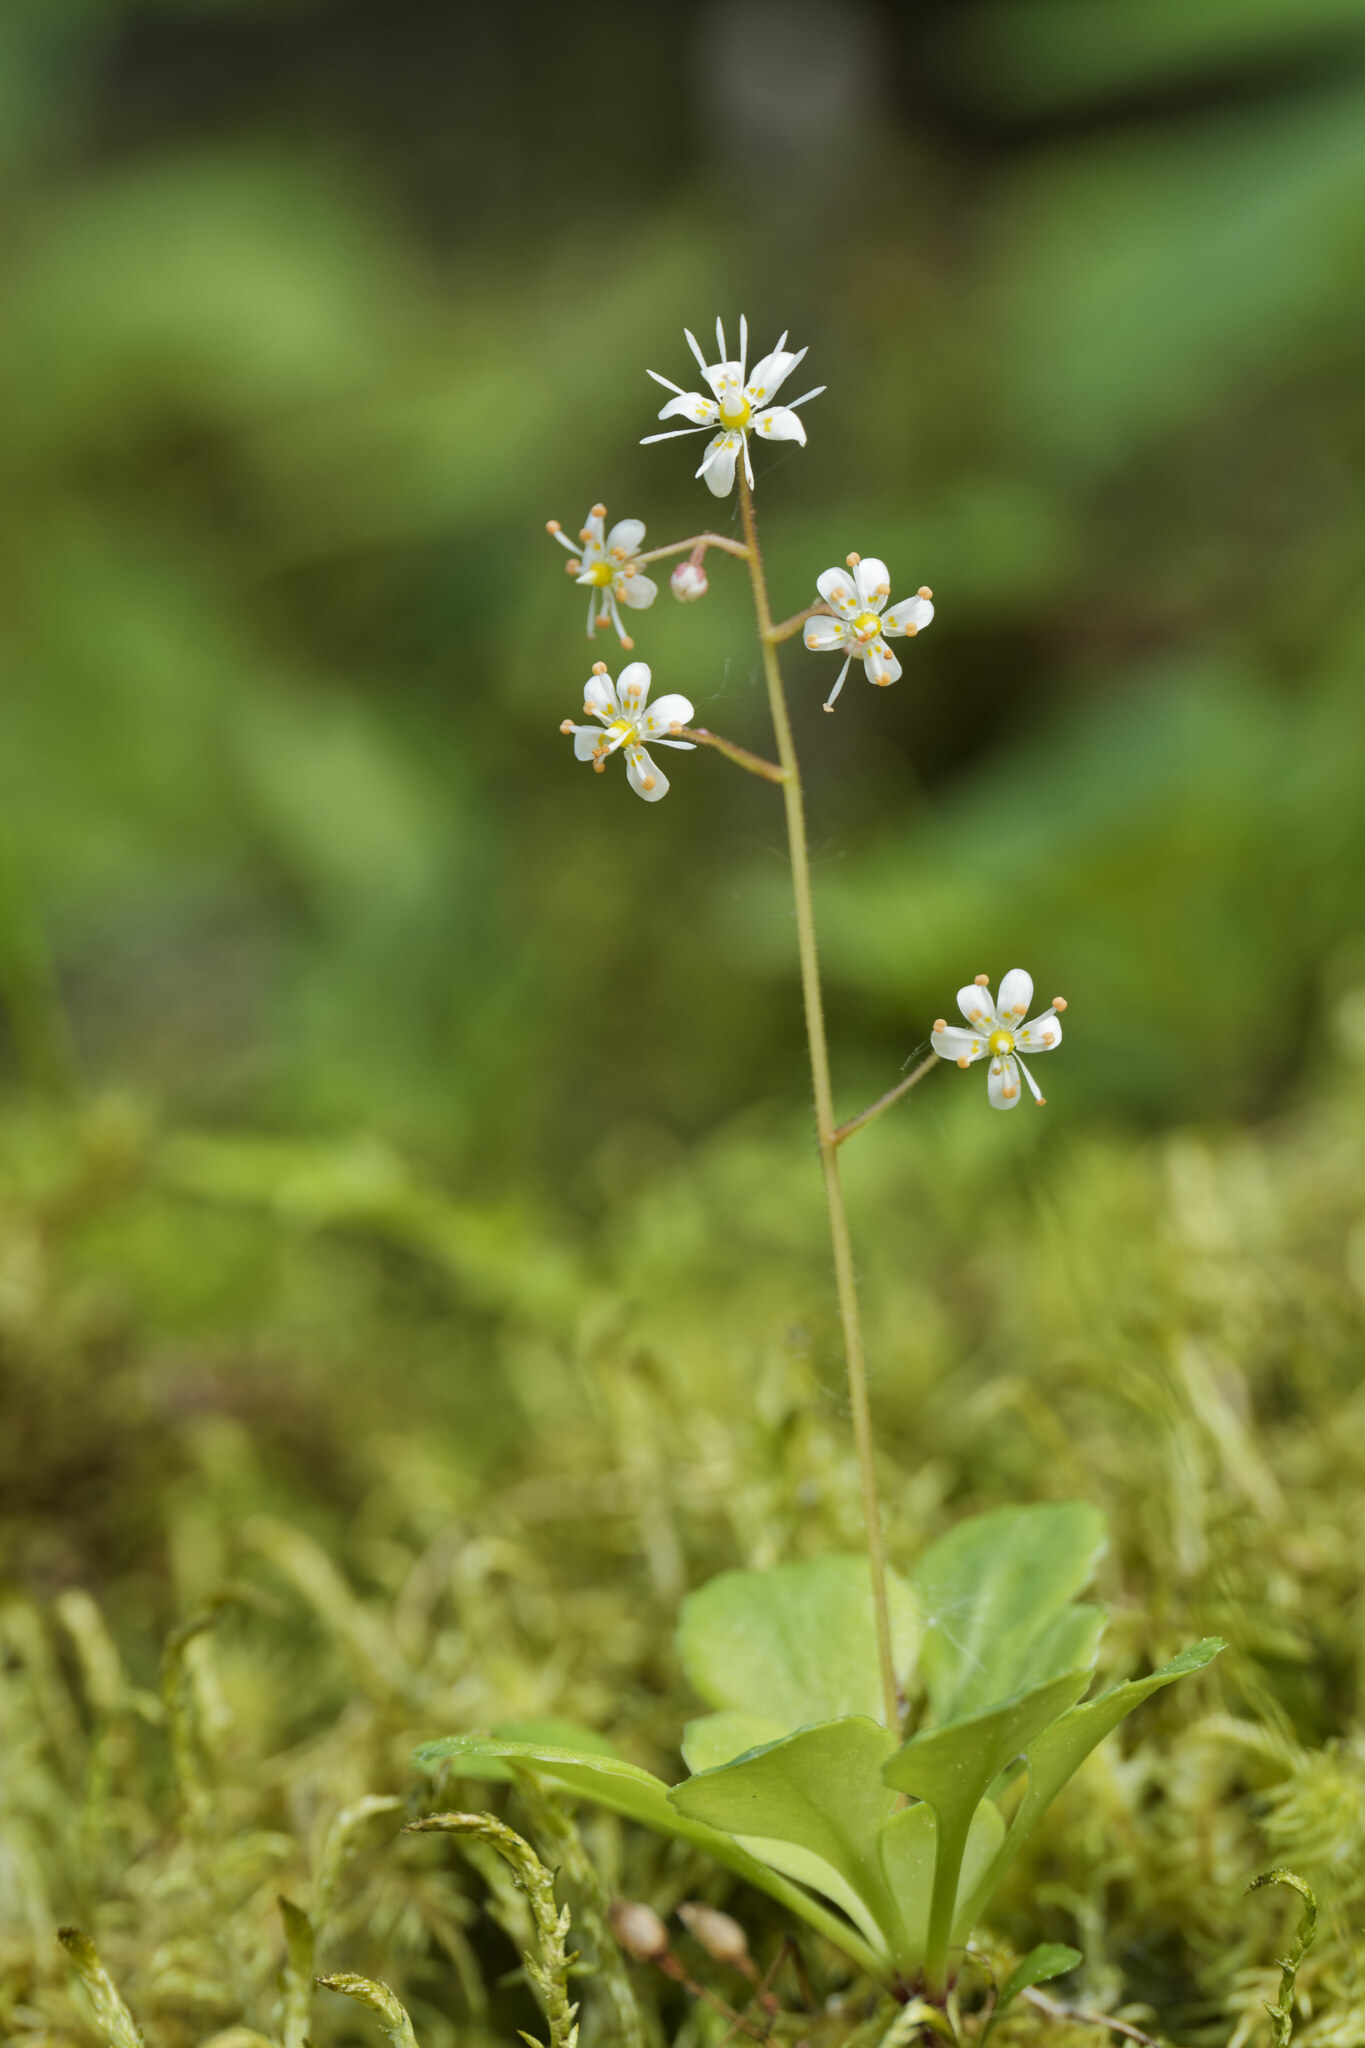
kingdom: Plantae
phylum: Tracheophyta
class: Magnoliopsida
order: Saxifragales
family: Saxifragaceae
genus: Saxifraga
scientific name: Saxifraga cuneifolia
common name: Lesser londonpride
